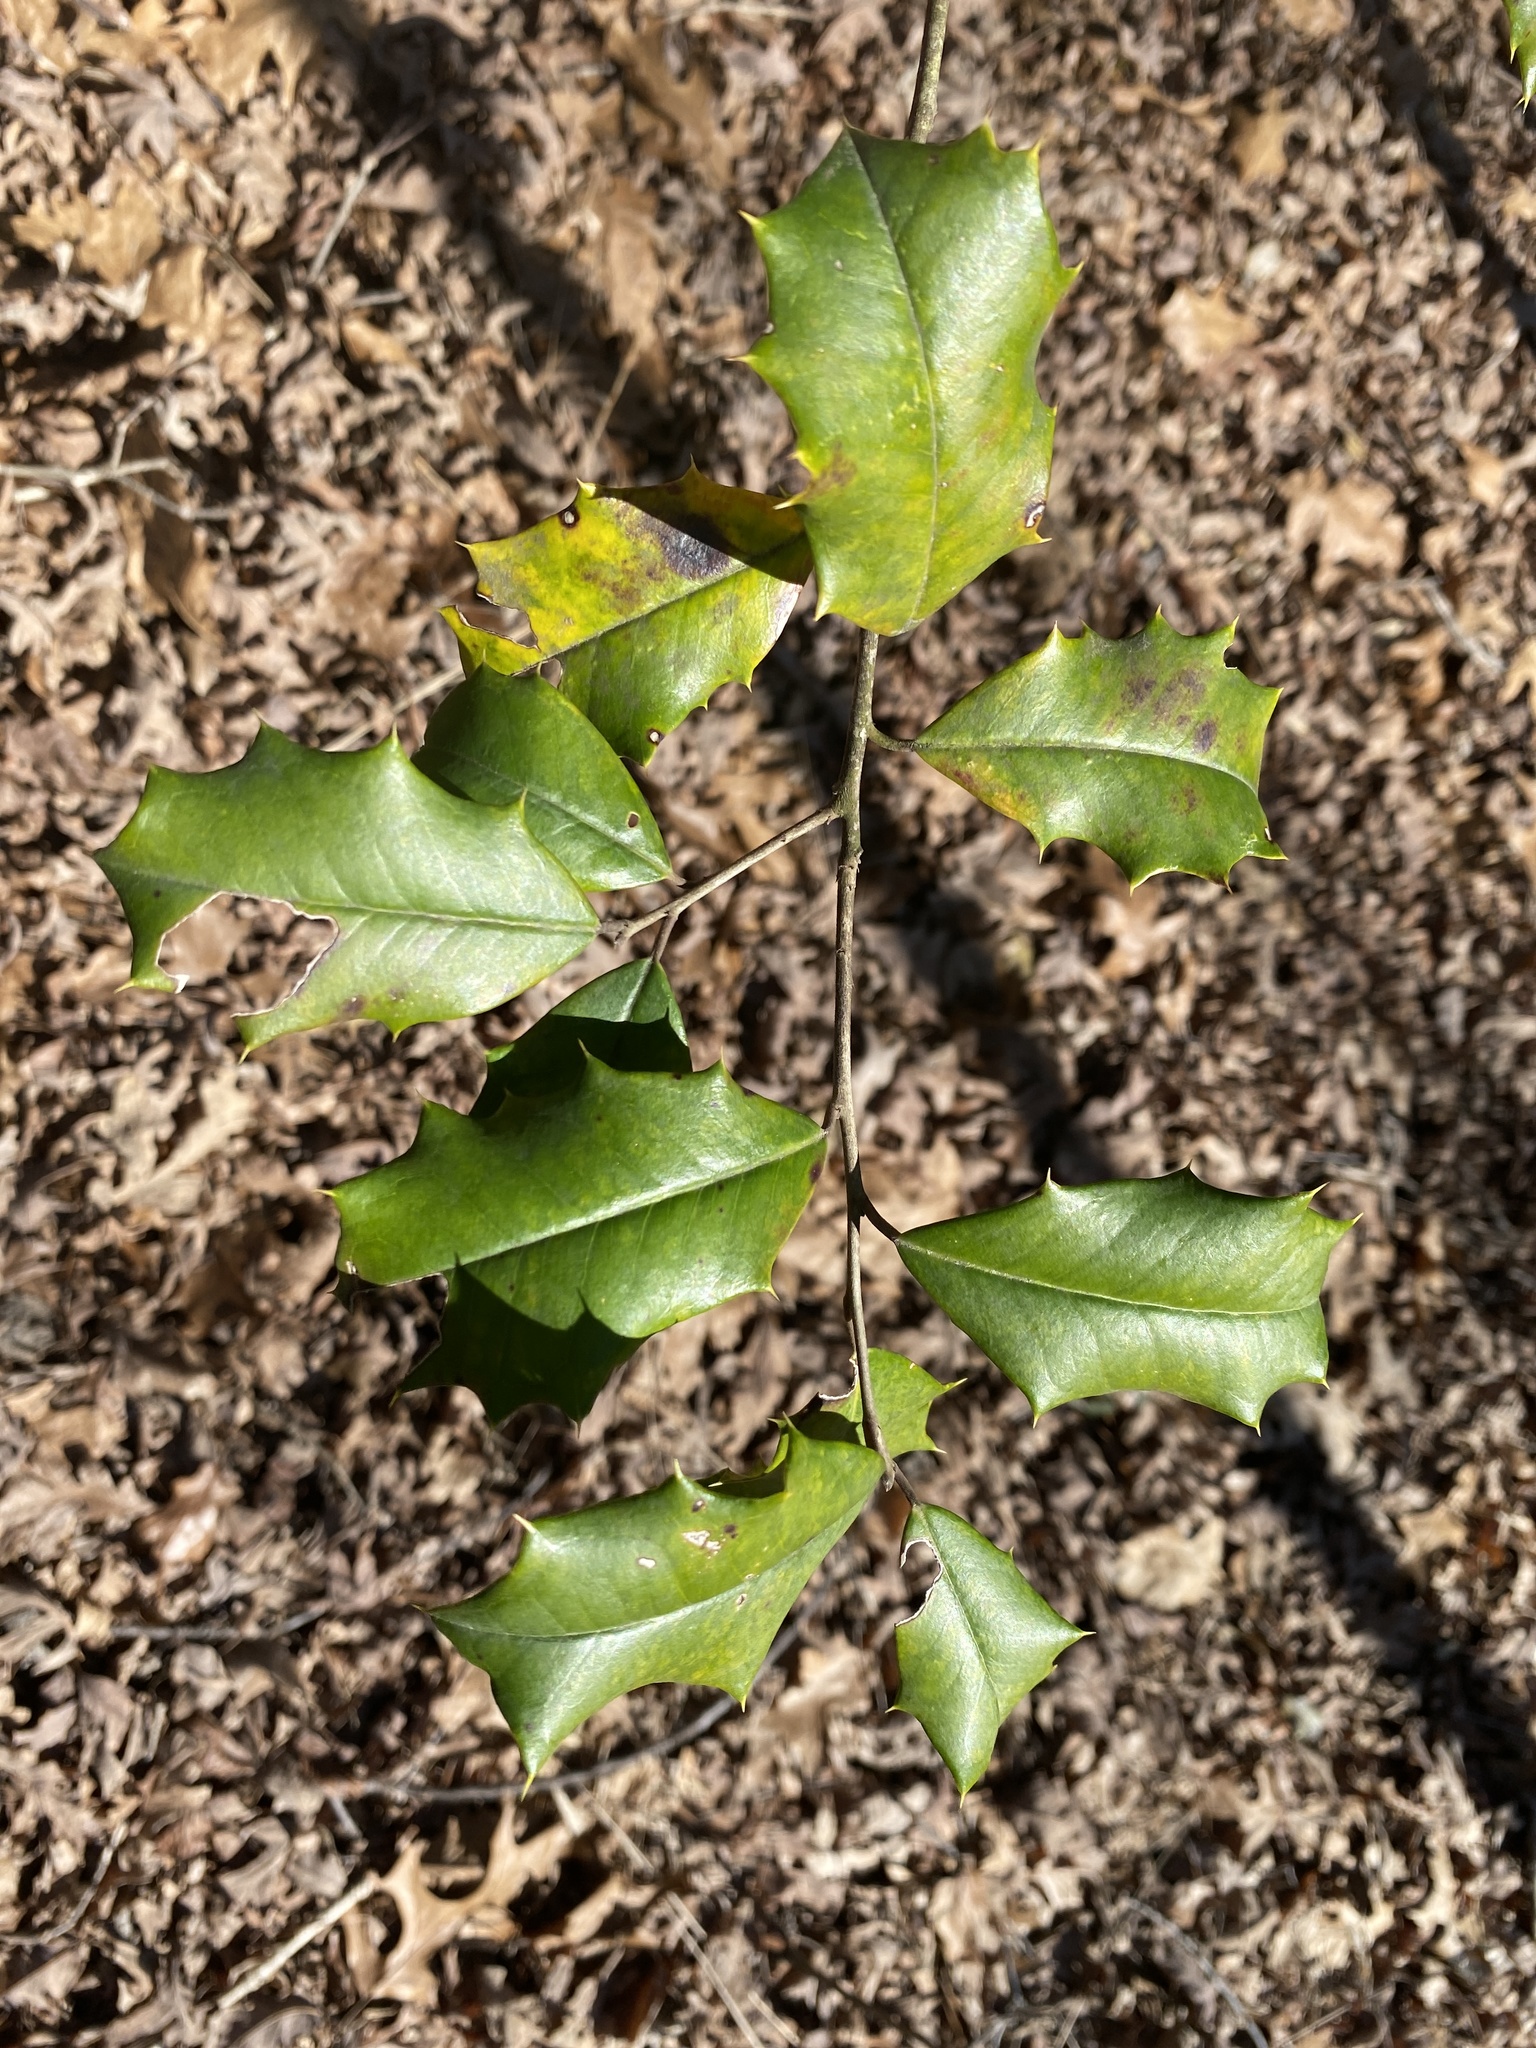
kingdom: Plantae
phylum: Tracheophyta
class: Magnoliopsida
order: Aquifoliales
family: Aquifoliaceae
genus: Ilex
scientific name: Ilex opaca
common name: American holly
